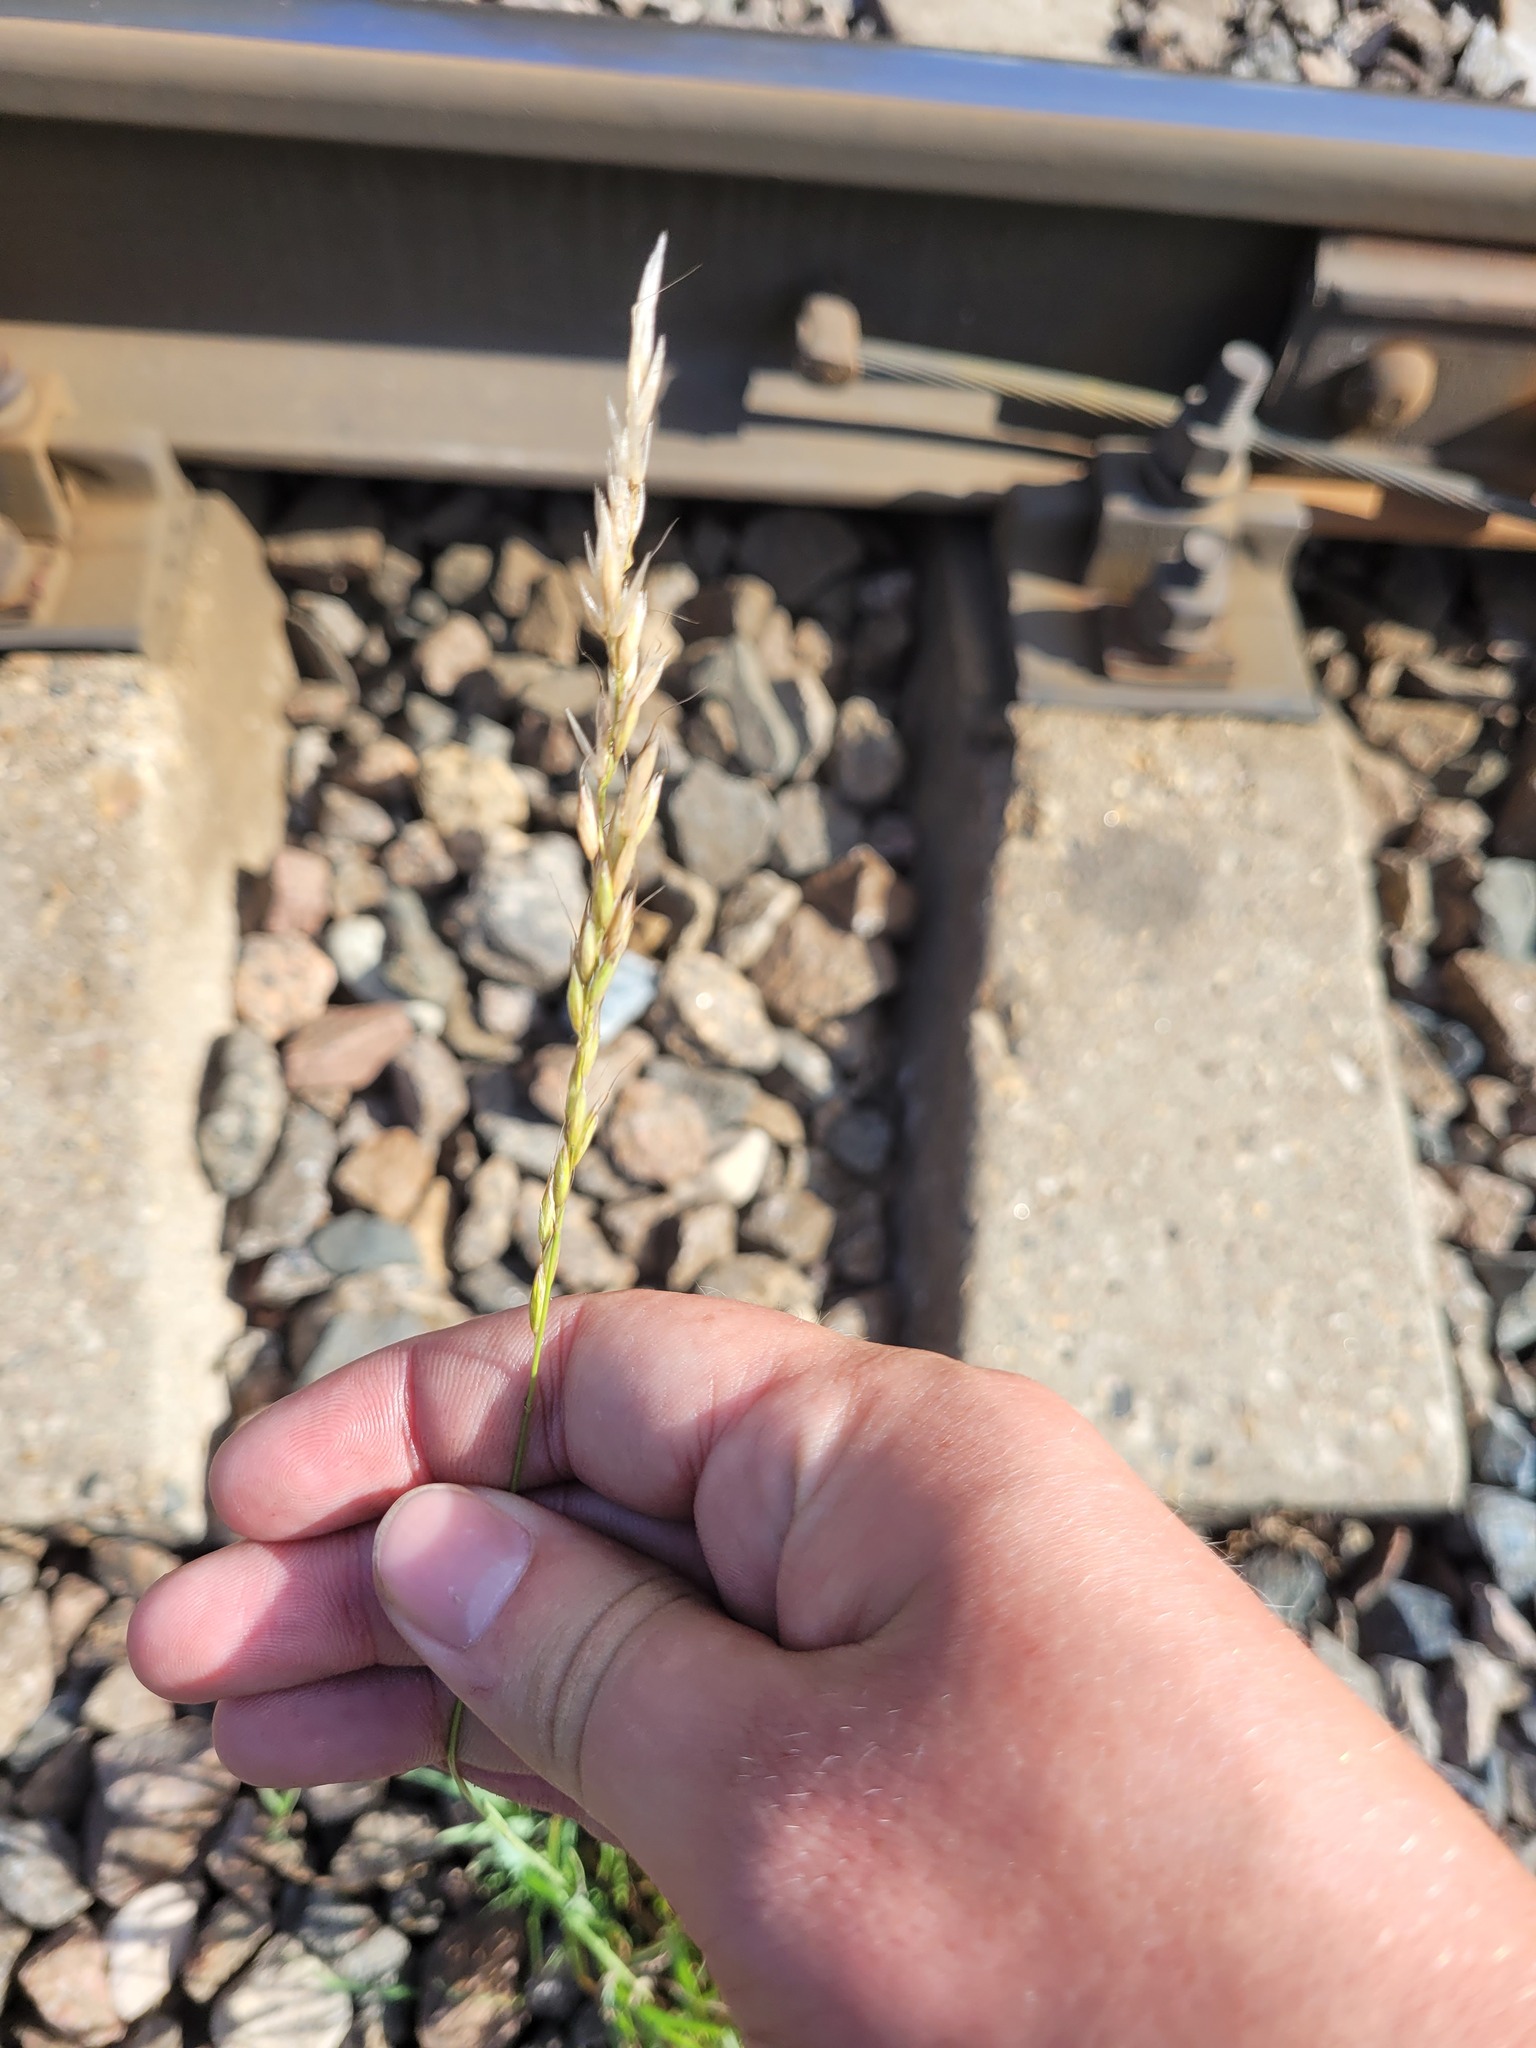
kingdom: Plantae
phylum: Tracheophyta
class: Liliopsida
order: Poales
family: Poaceae
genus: Arrhenatherum
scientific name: Arrhenatherum elatius
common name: Tall oatgrass
